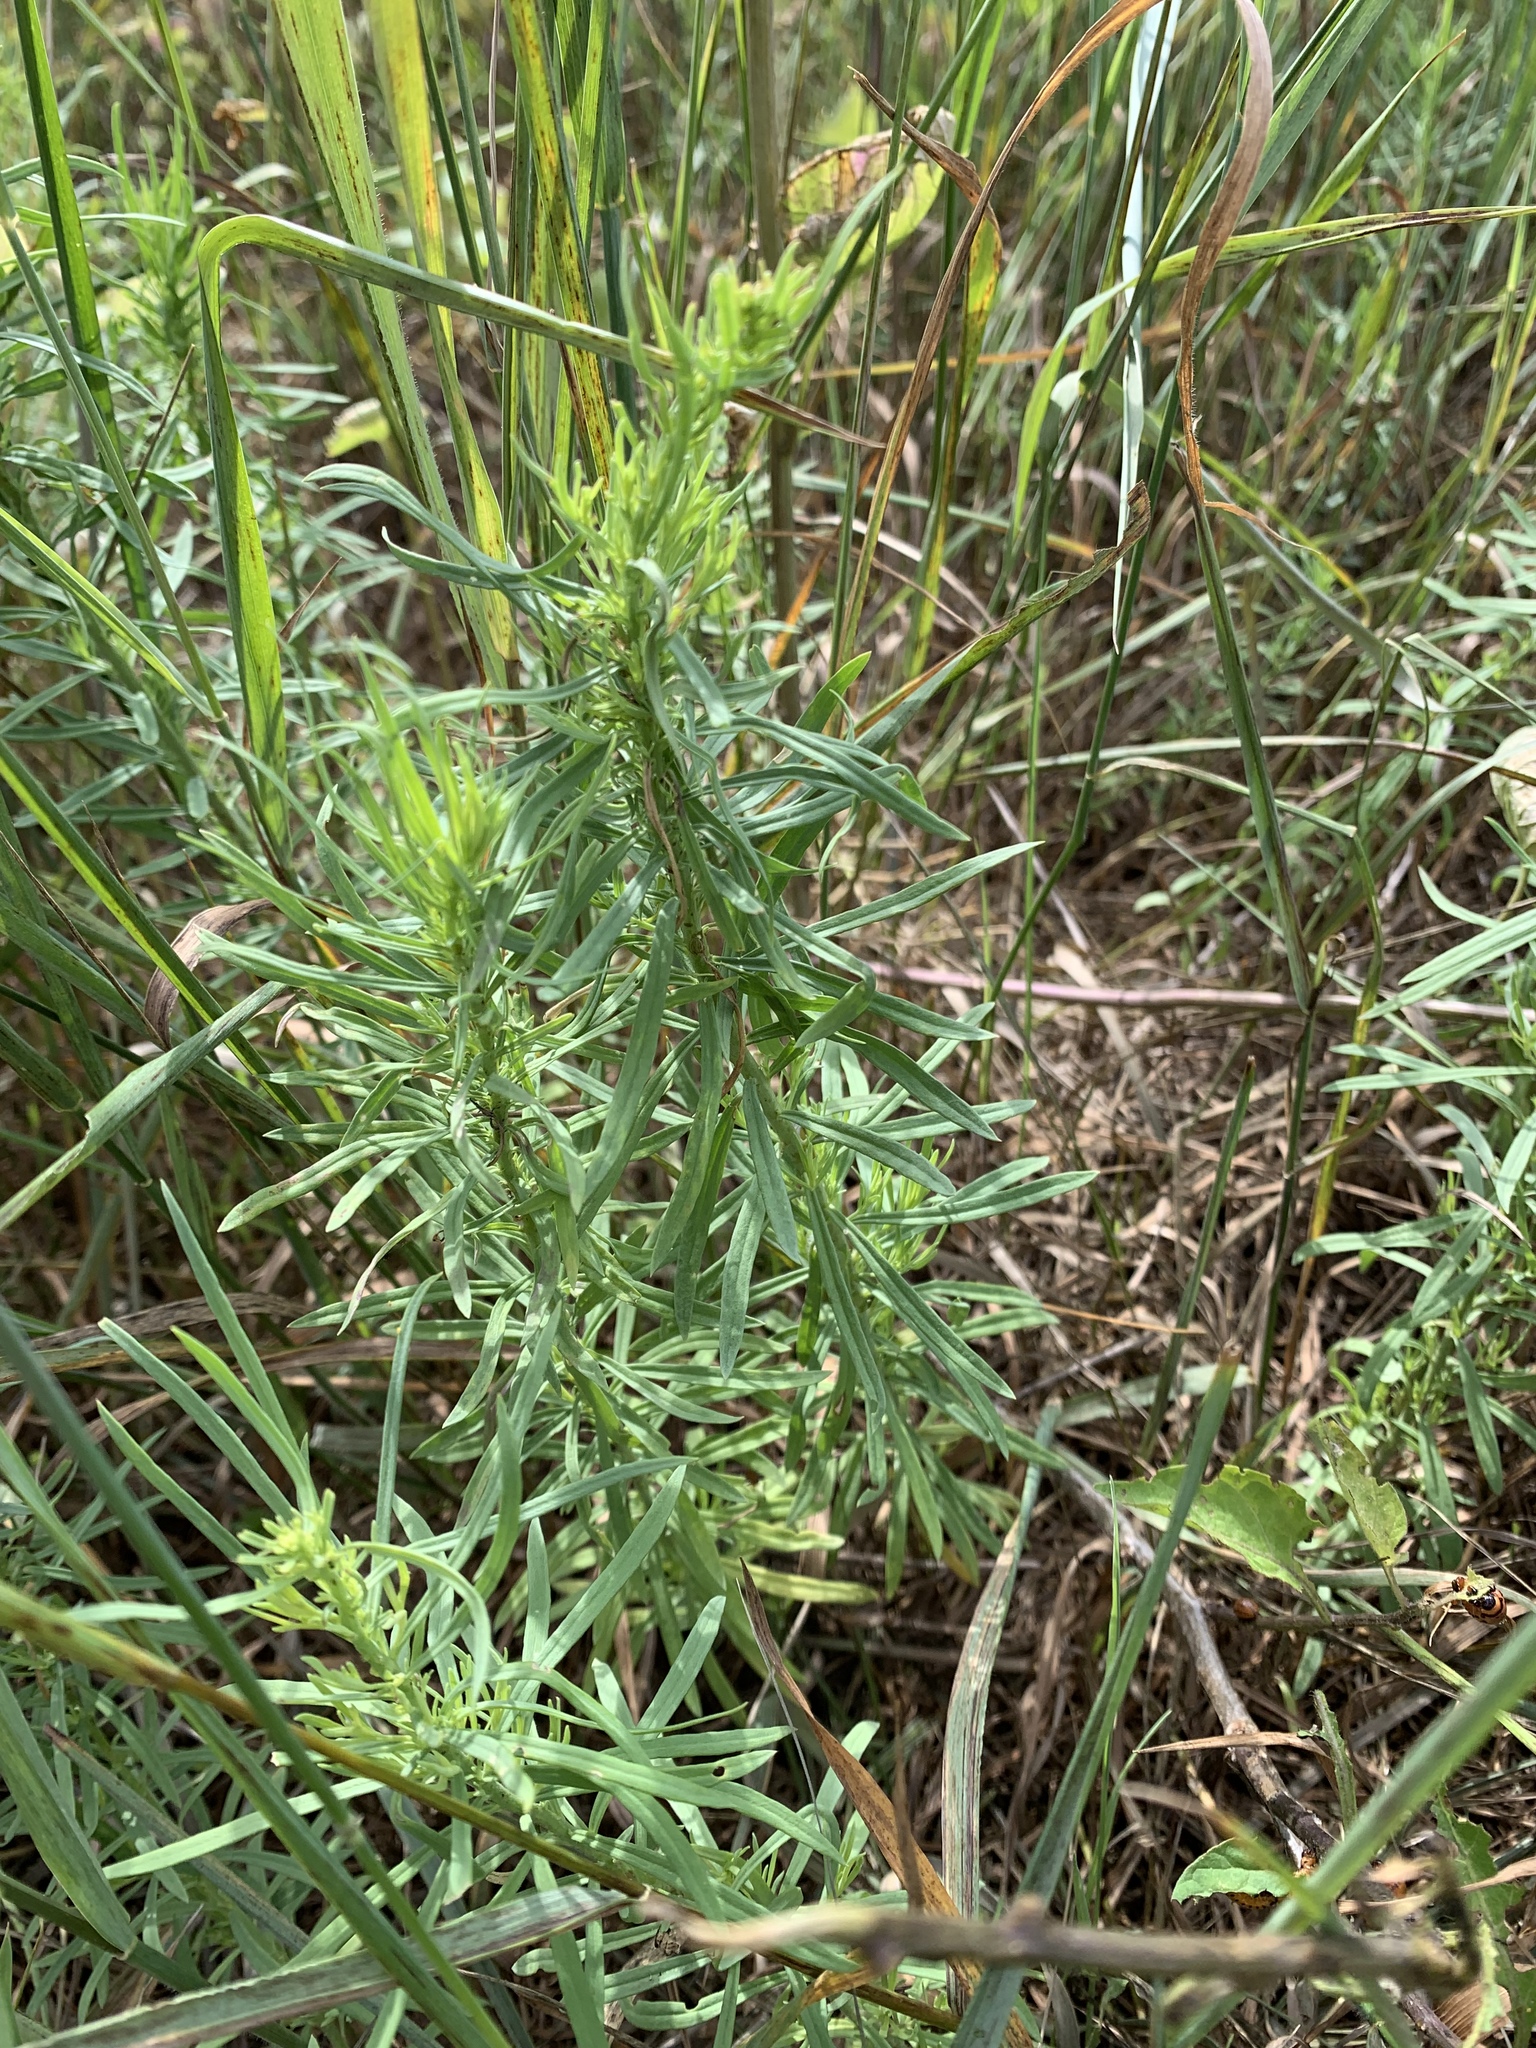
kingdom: Plantae
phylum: Tracheophyta
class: Magnoliopsida
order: Lamiales
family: Plantaginaceae
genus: Linaria
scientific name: Linaria vulgaris
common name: Butter and eggs
